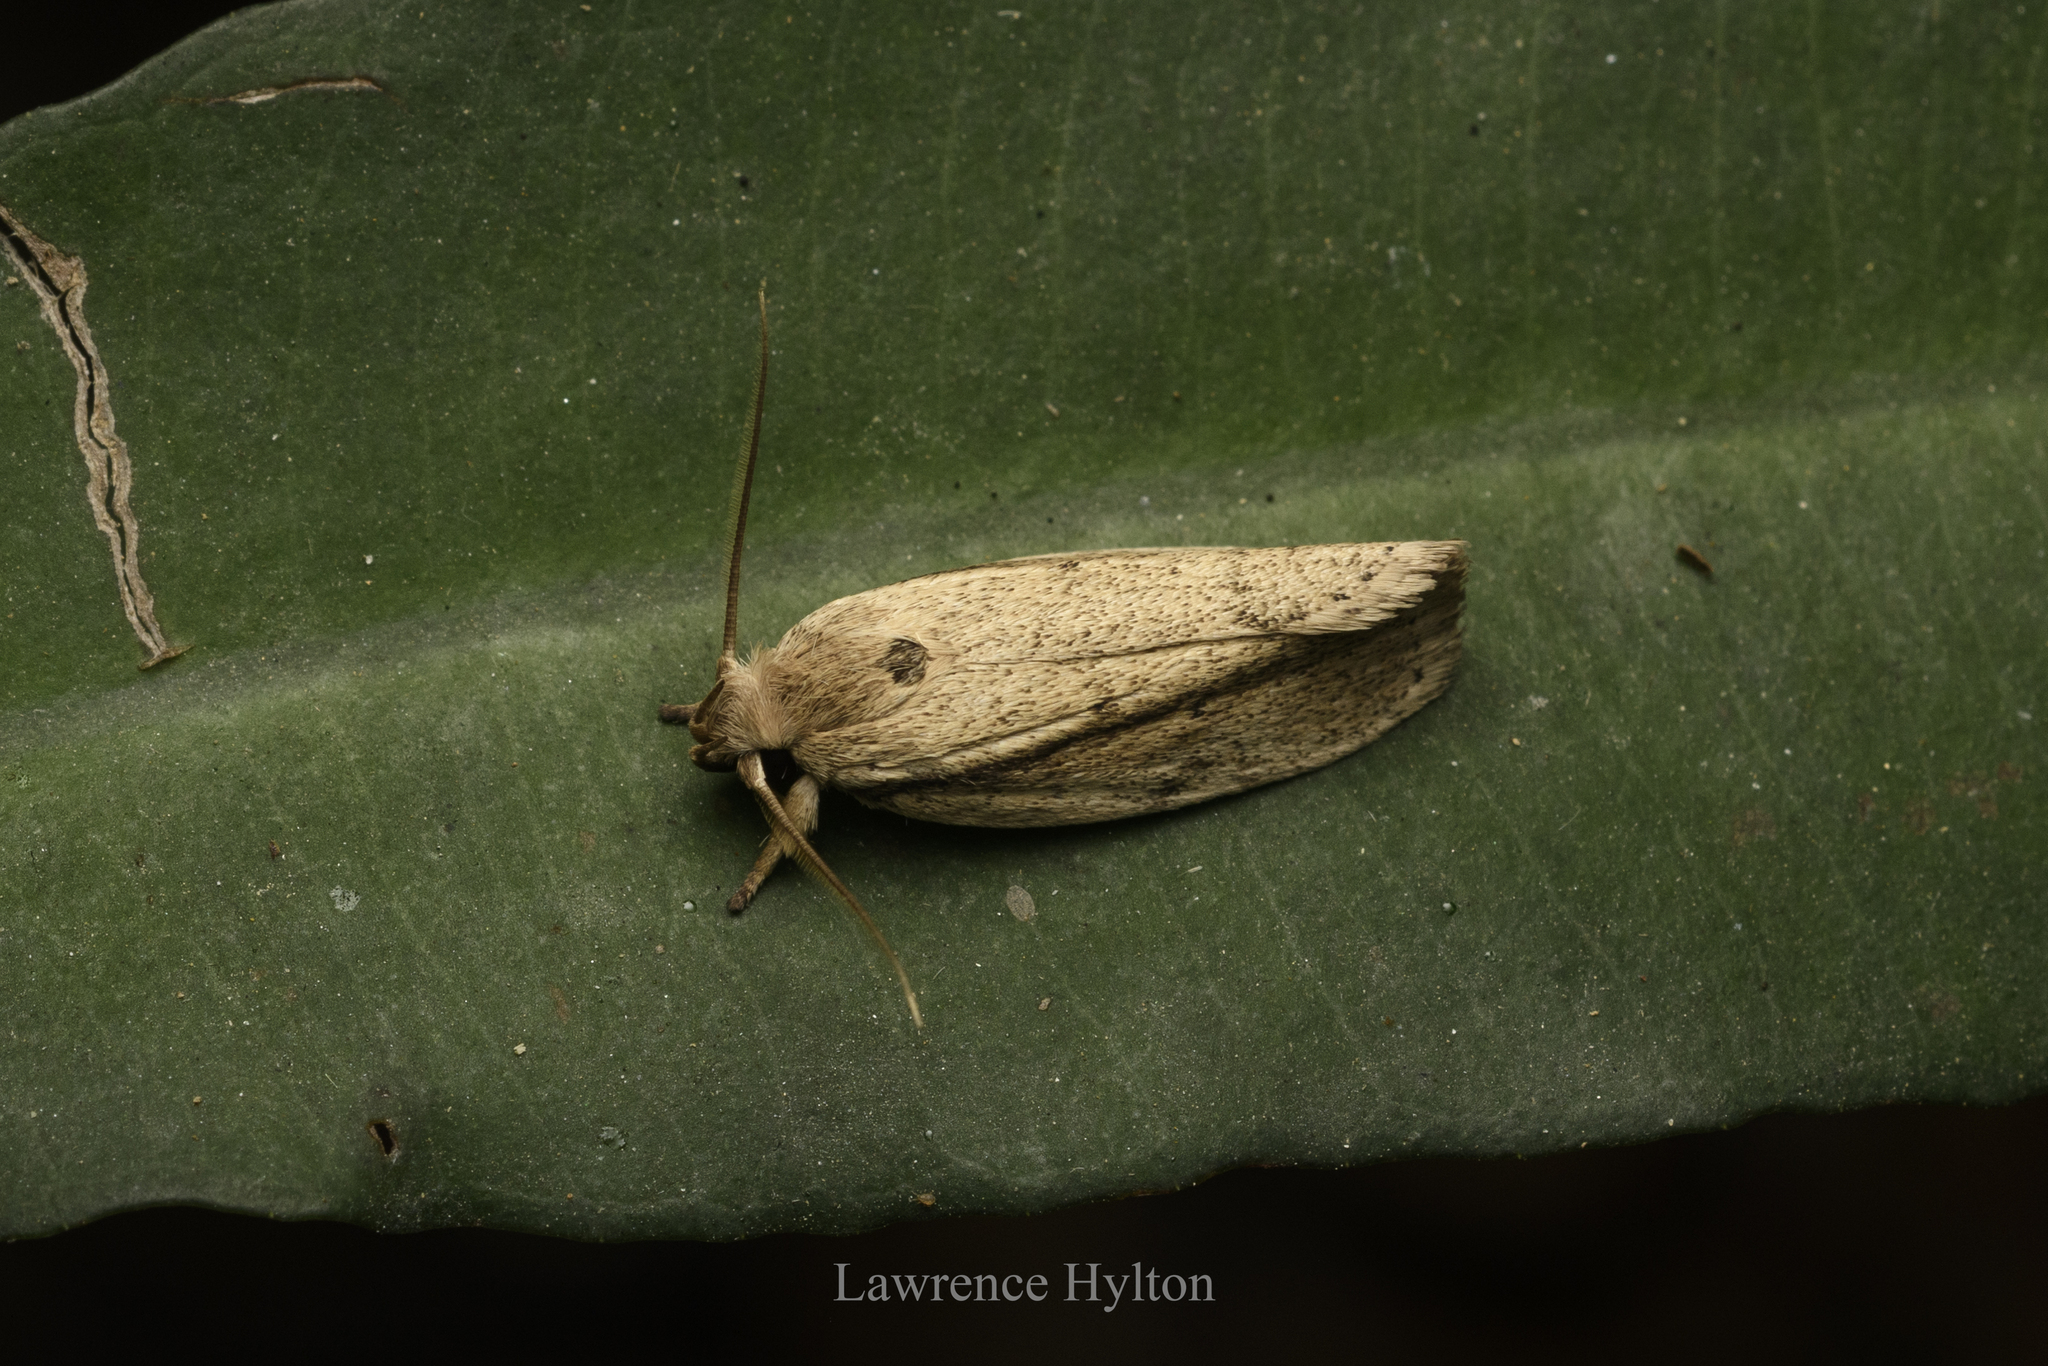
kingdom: Animalia
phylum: Arthropoda
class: Insecta
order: Lepidoptera
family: Xyloryctidae
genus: Neospastis
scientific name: Neospastis sinensis
